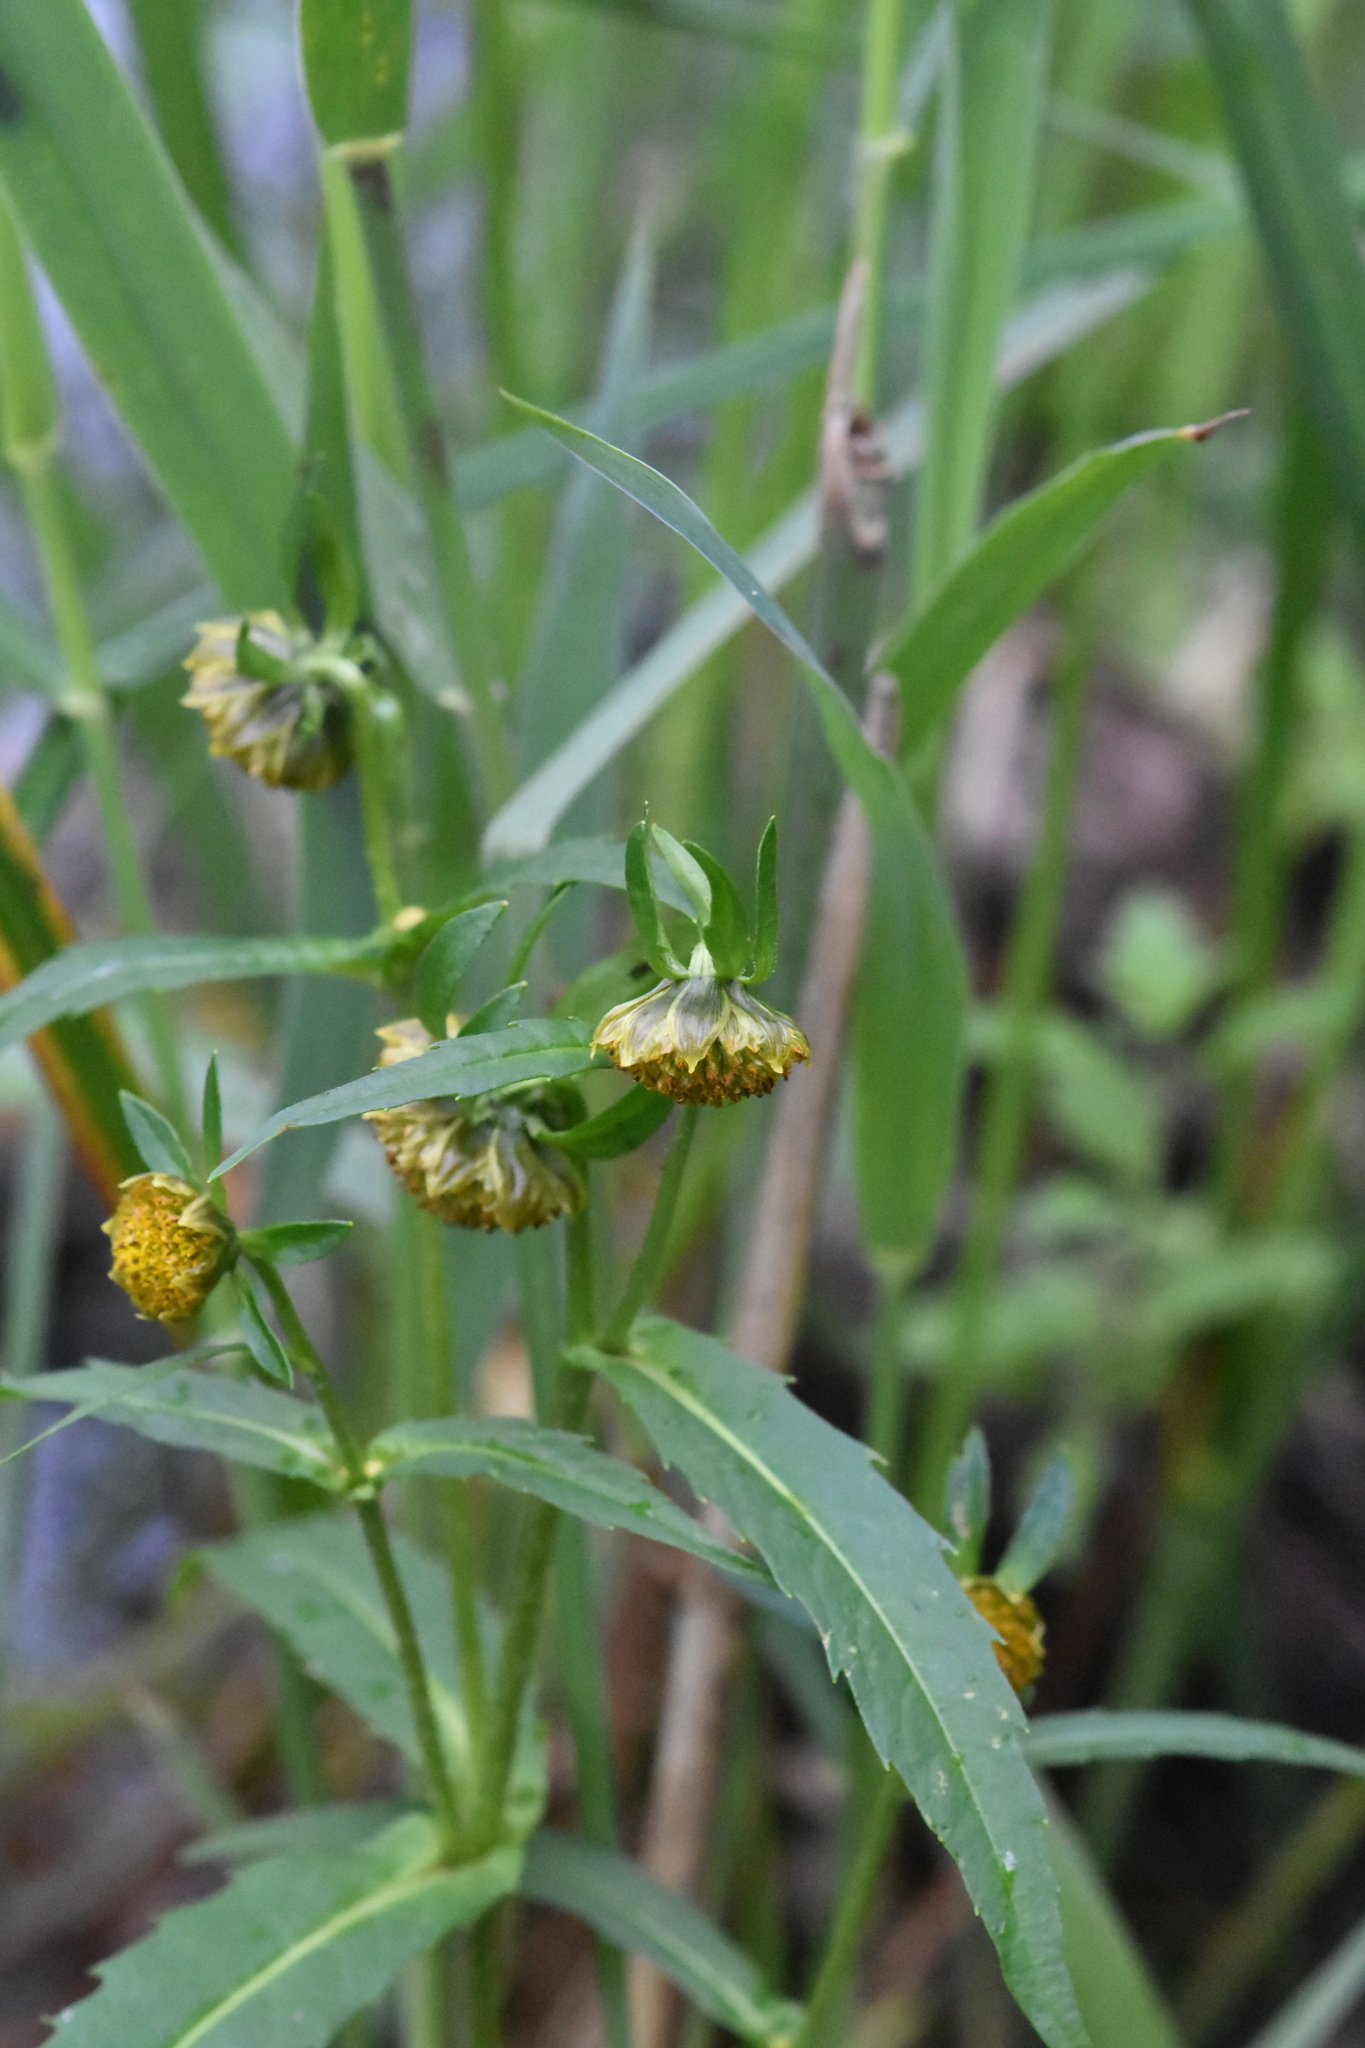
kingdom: Plantae
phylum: Tracheophyta
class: Magnoliopsida
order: Asterales
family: Asteraceae
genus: Bidens
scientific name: Bidens cernua
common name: Nodding bur-marigold
